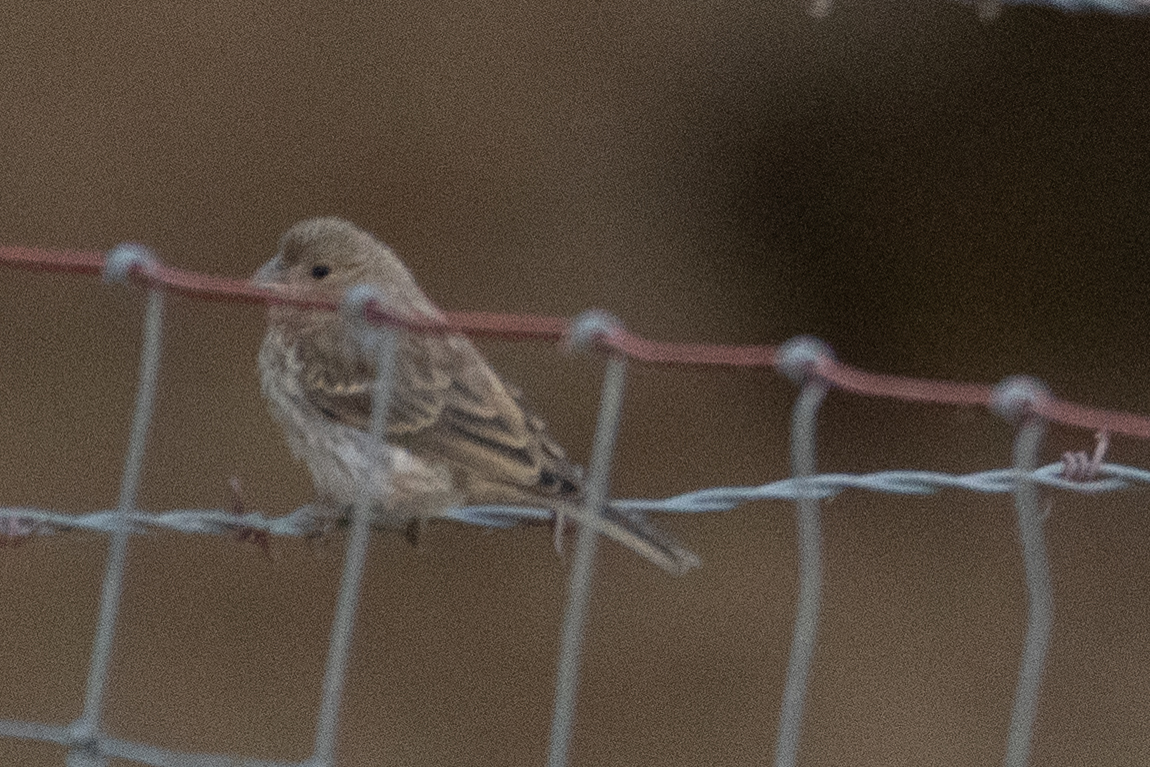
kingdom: Animalia
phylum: Chordata
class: Aves
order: Passeriformes
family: Fringillidae
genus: Haemorhous
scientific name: Haemorhous mexicanus
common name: House finch
